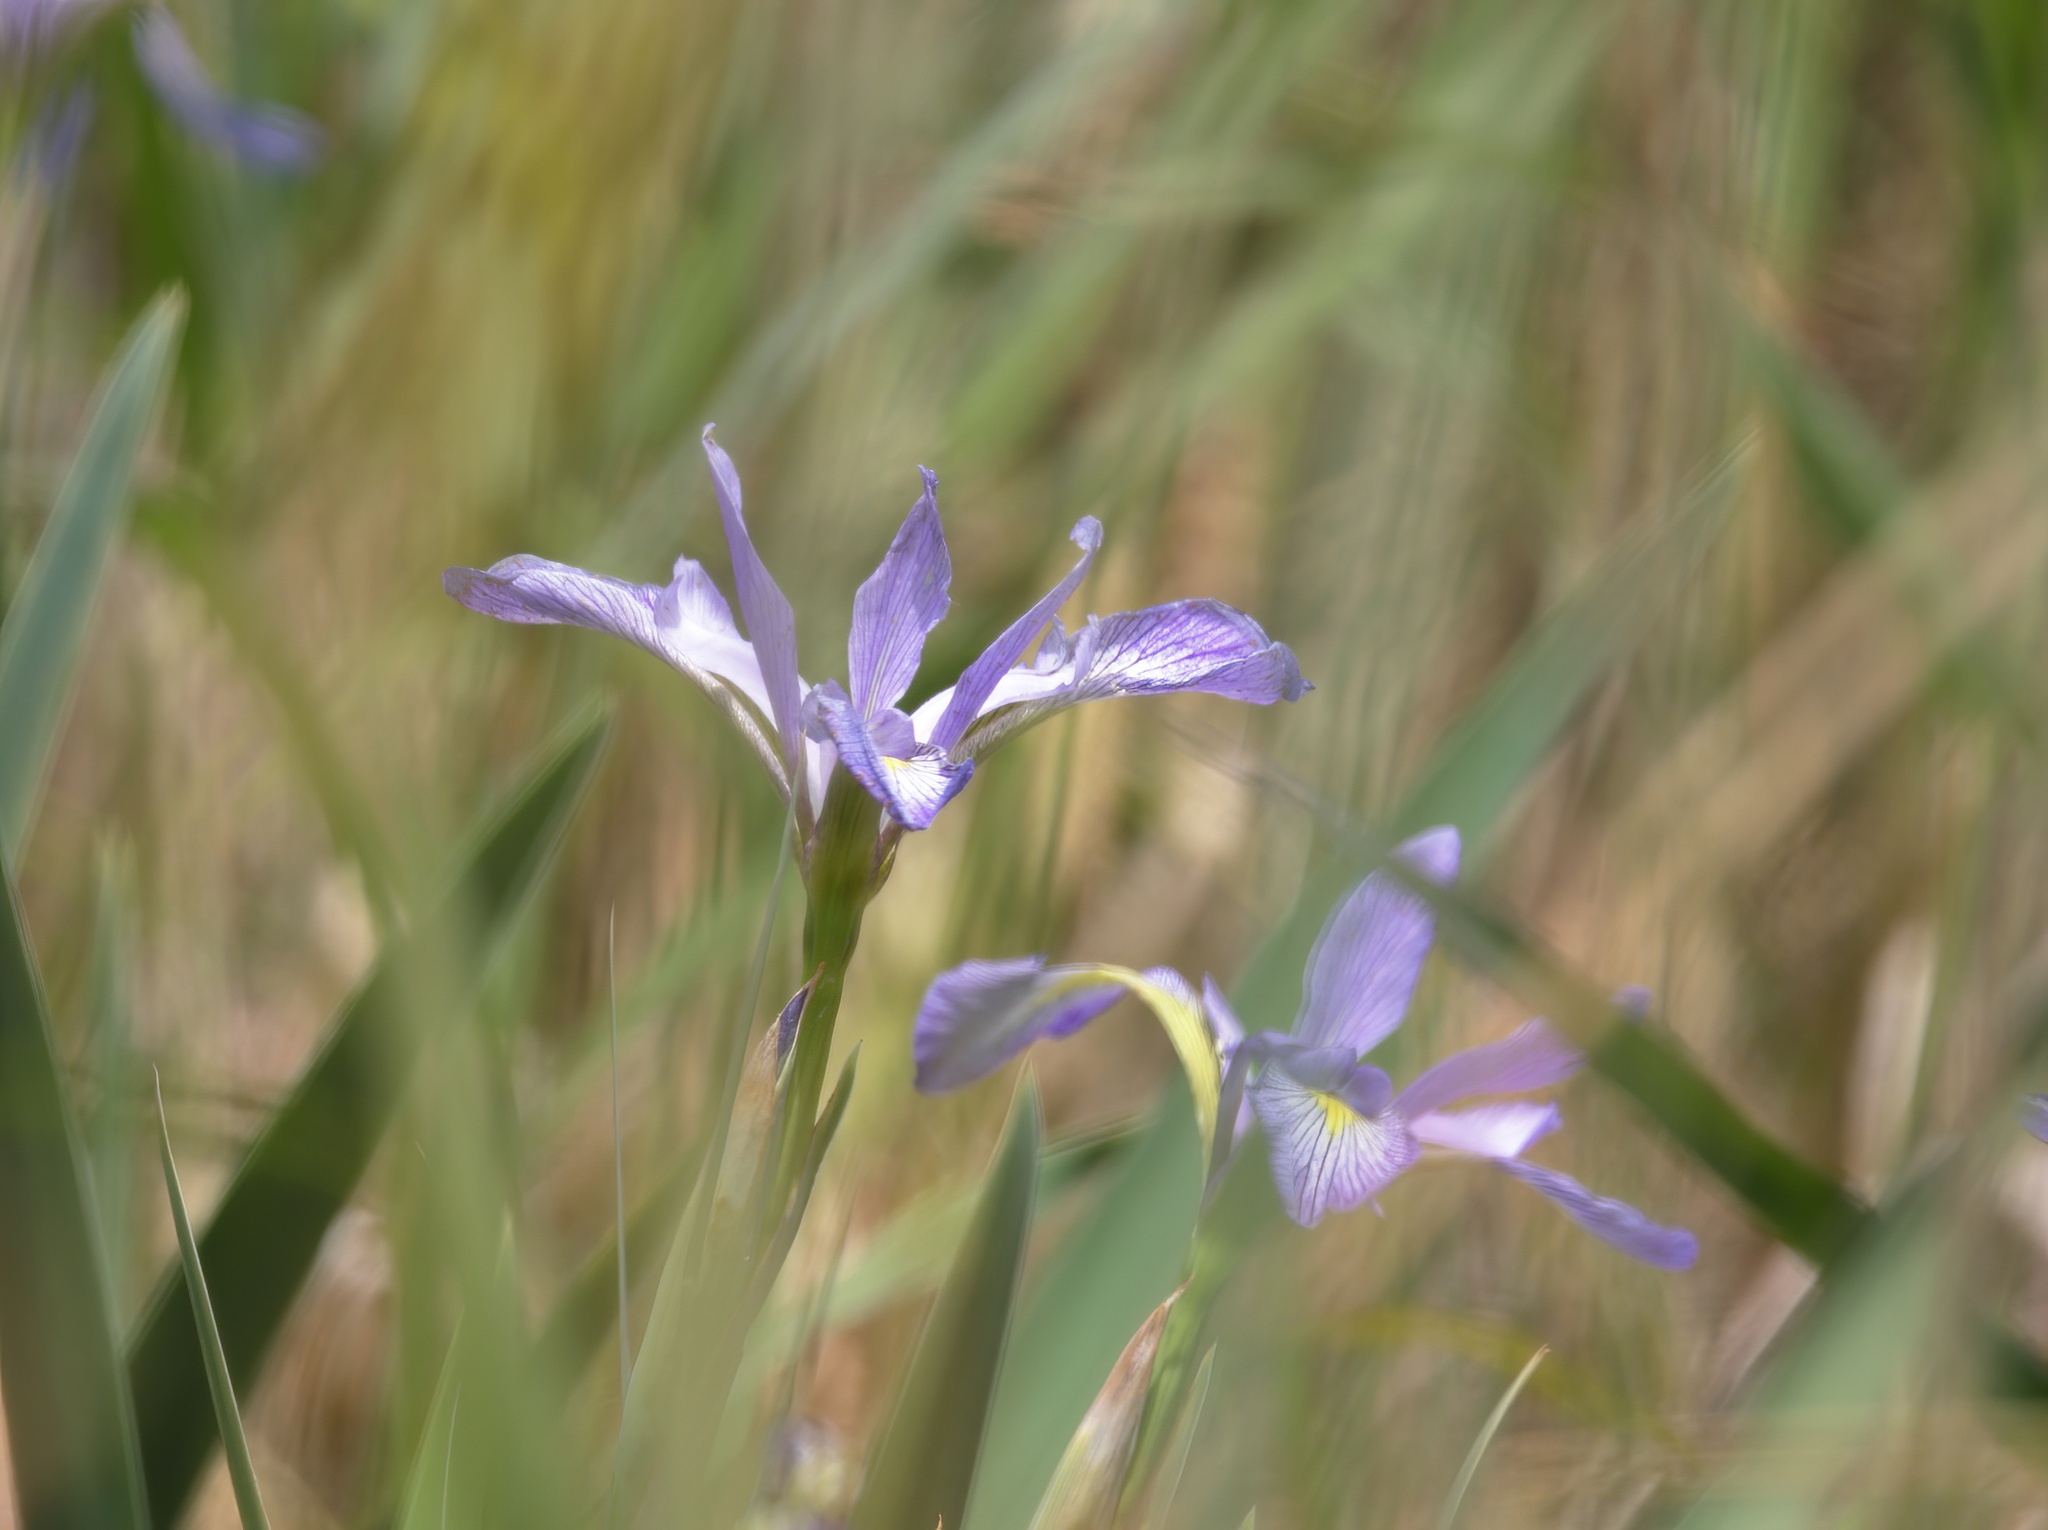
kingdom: Plantae
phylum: Tracheophyta
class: Liliopsida
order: Asparagales
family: Iridaceae
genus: Iris
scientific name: Iris virginica
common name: Southern blue flag
